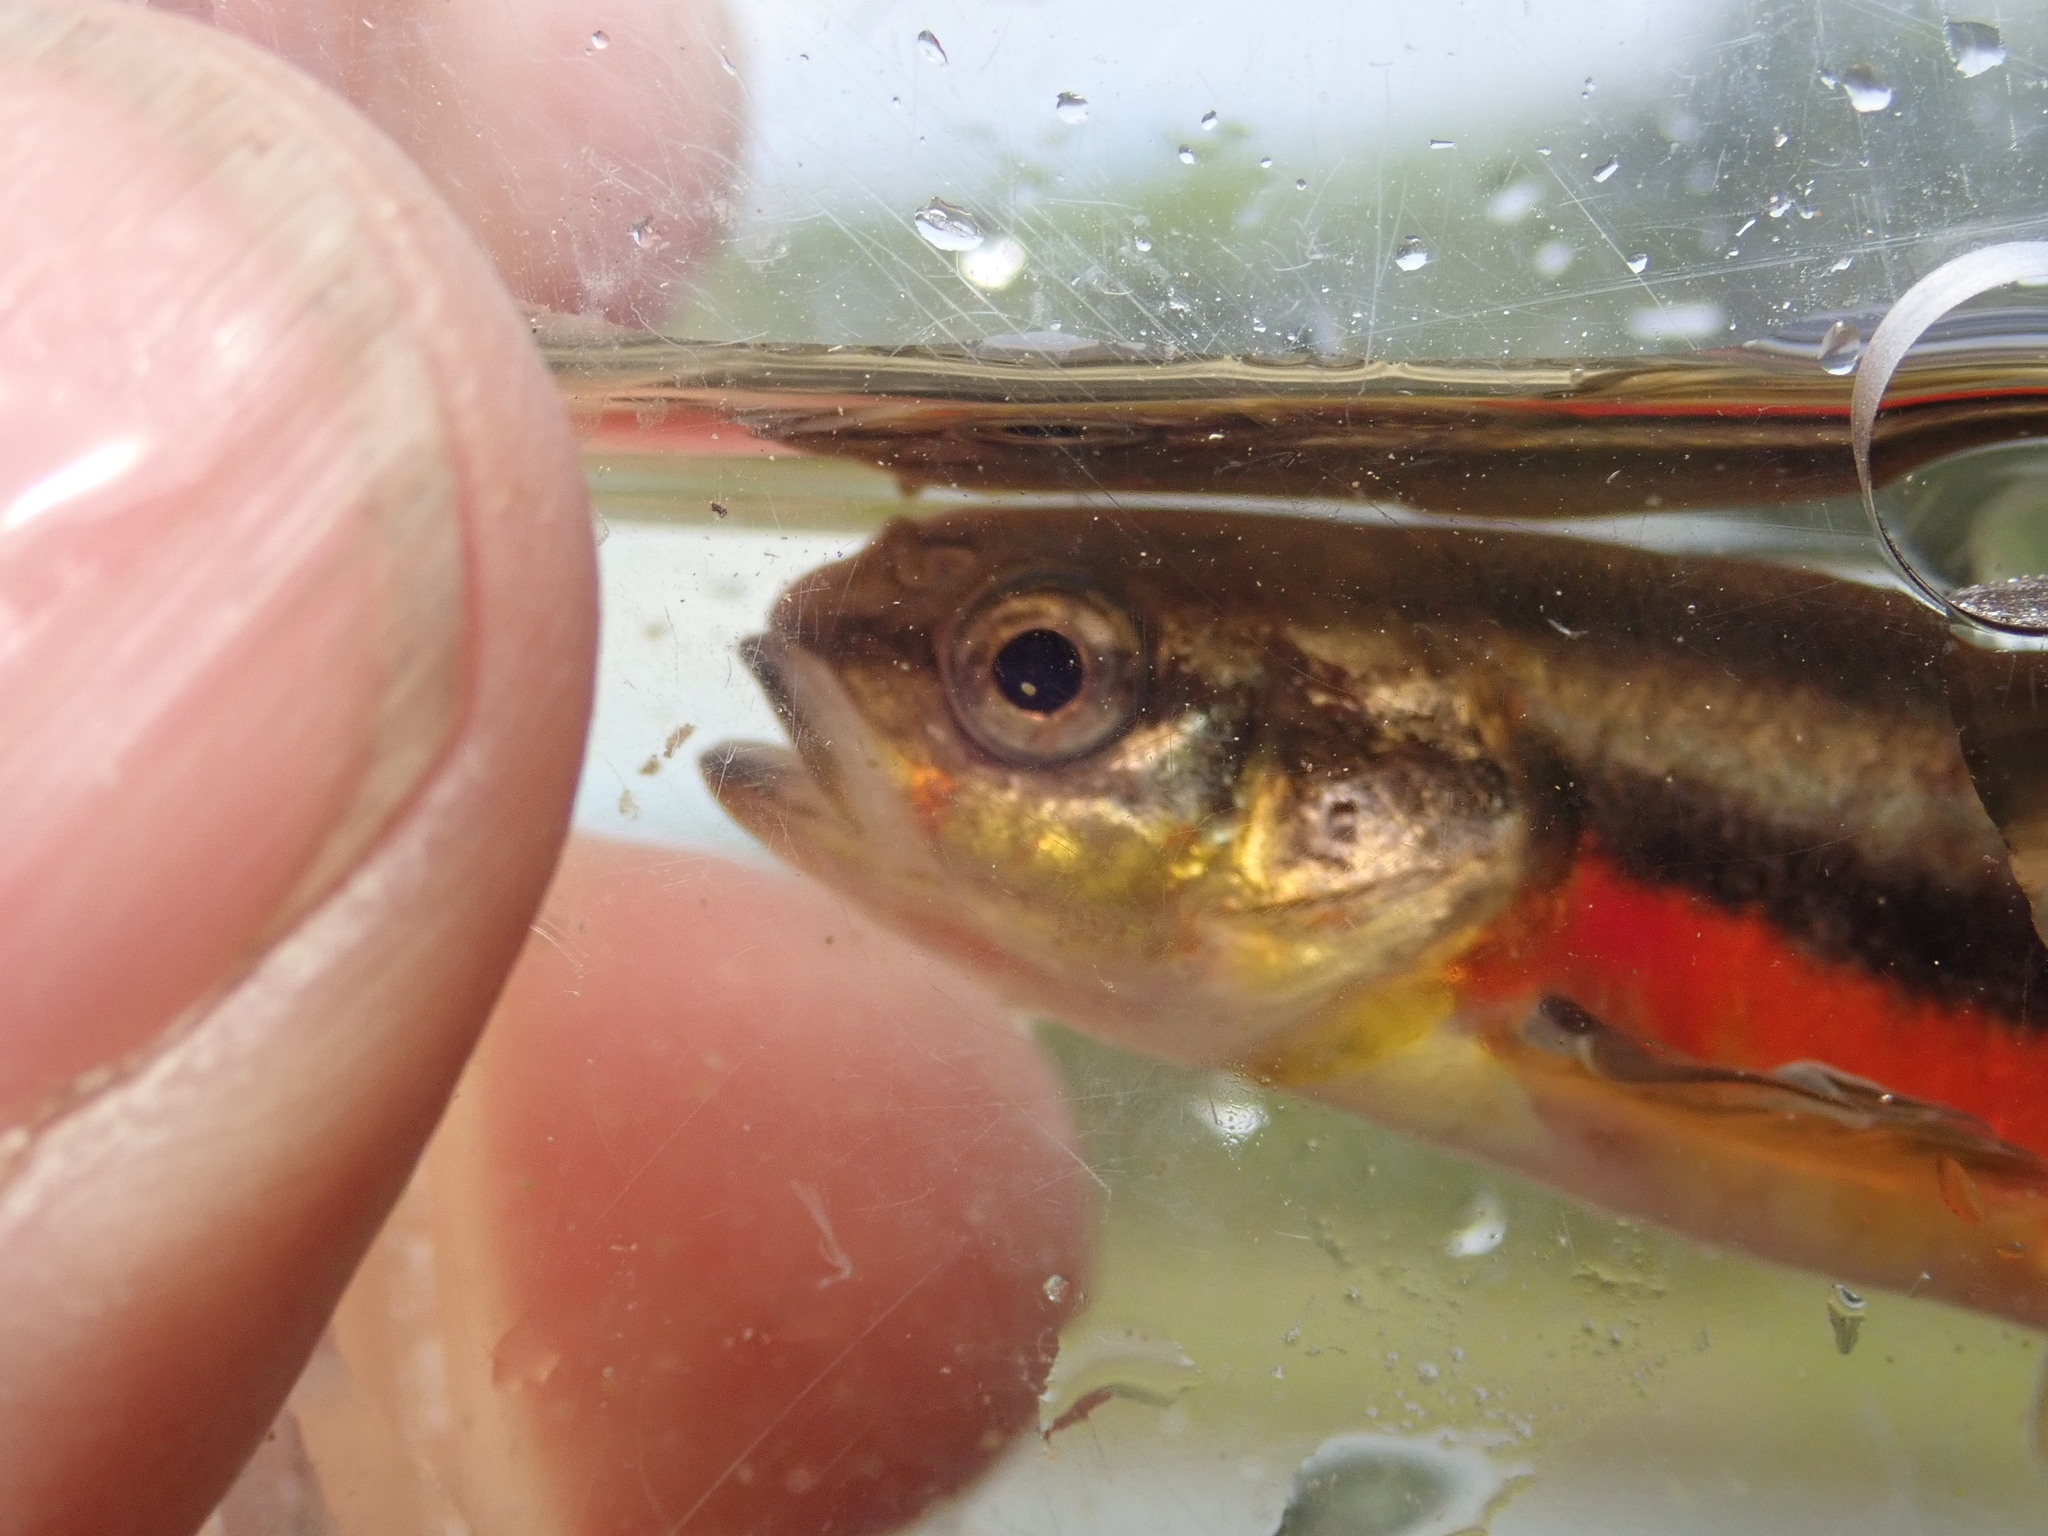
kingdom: Animalia
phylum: Chordata
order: Cypriniformes
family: Cyprinidae
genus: Chrosomus
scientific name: Chrosomus neogaeus
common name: Finescale dace
